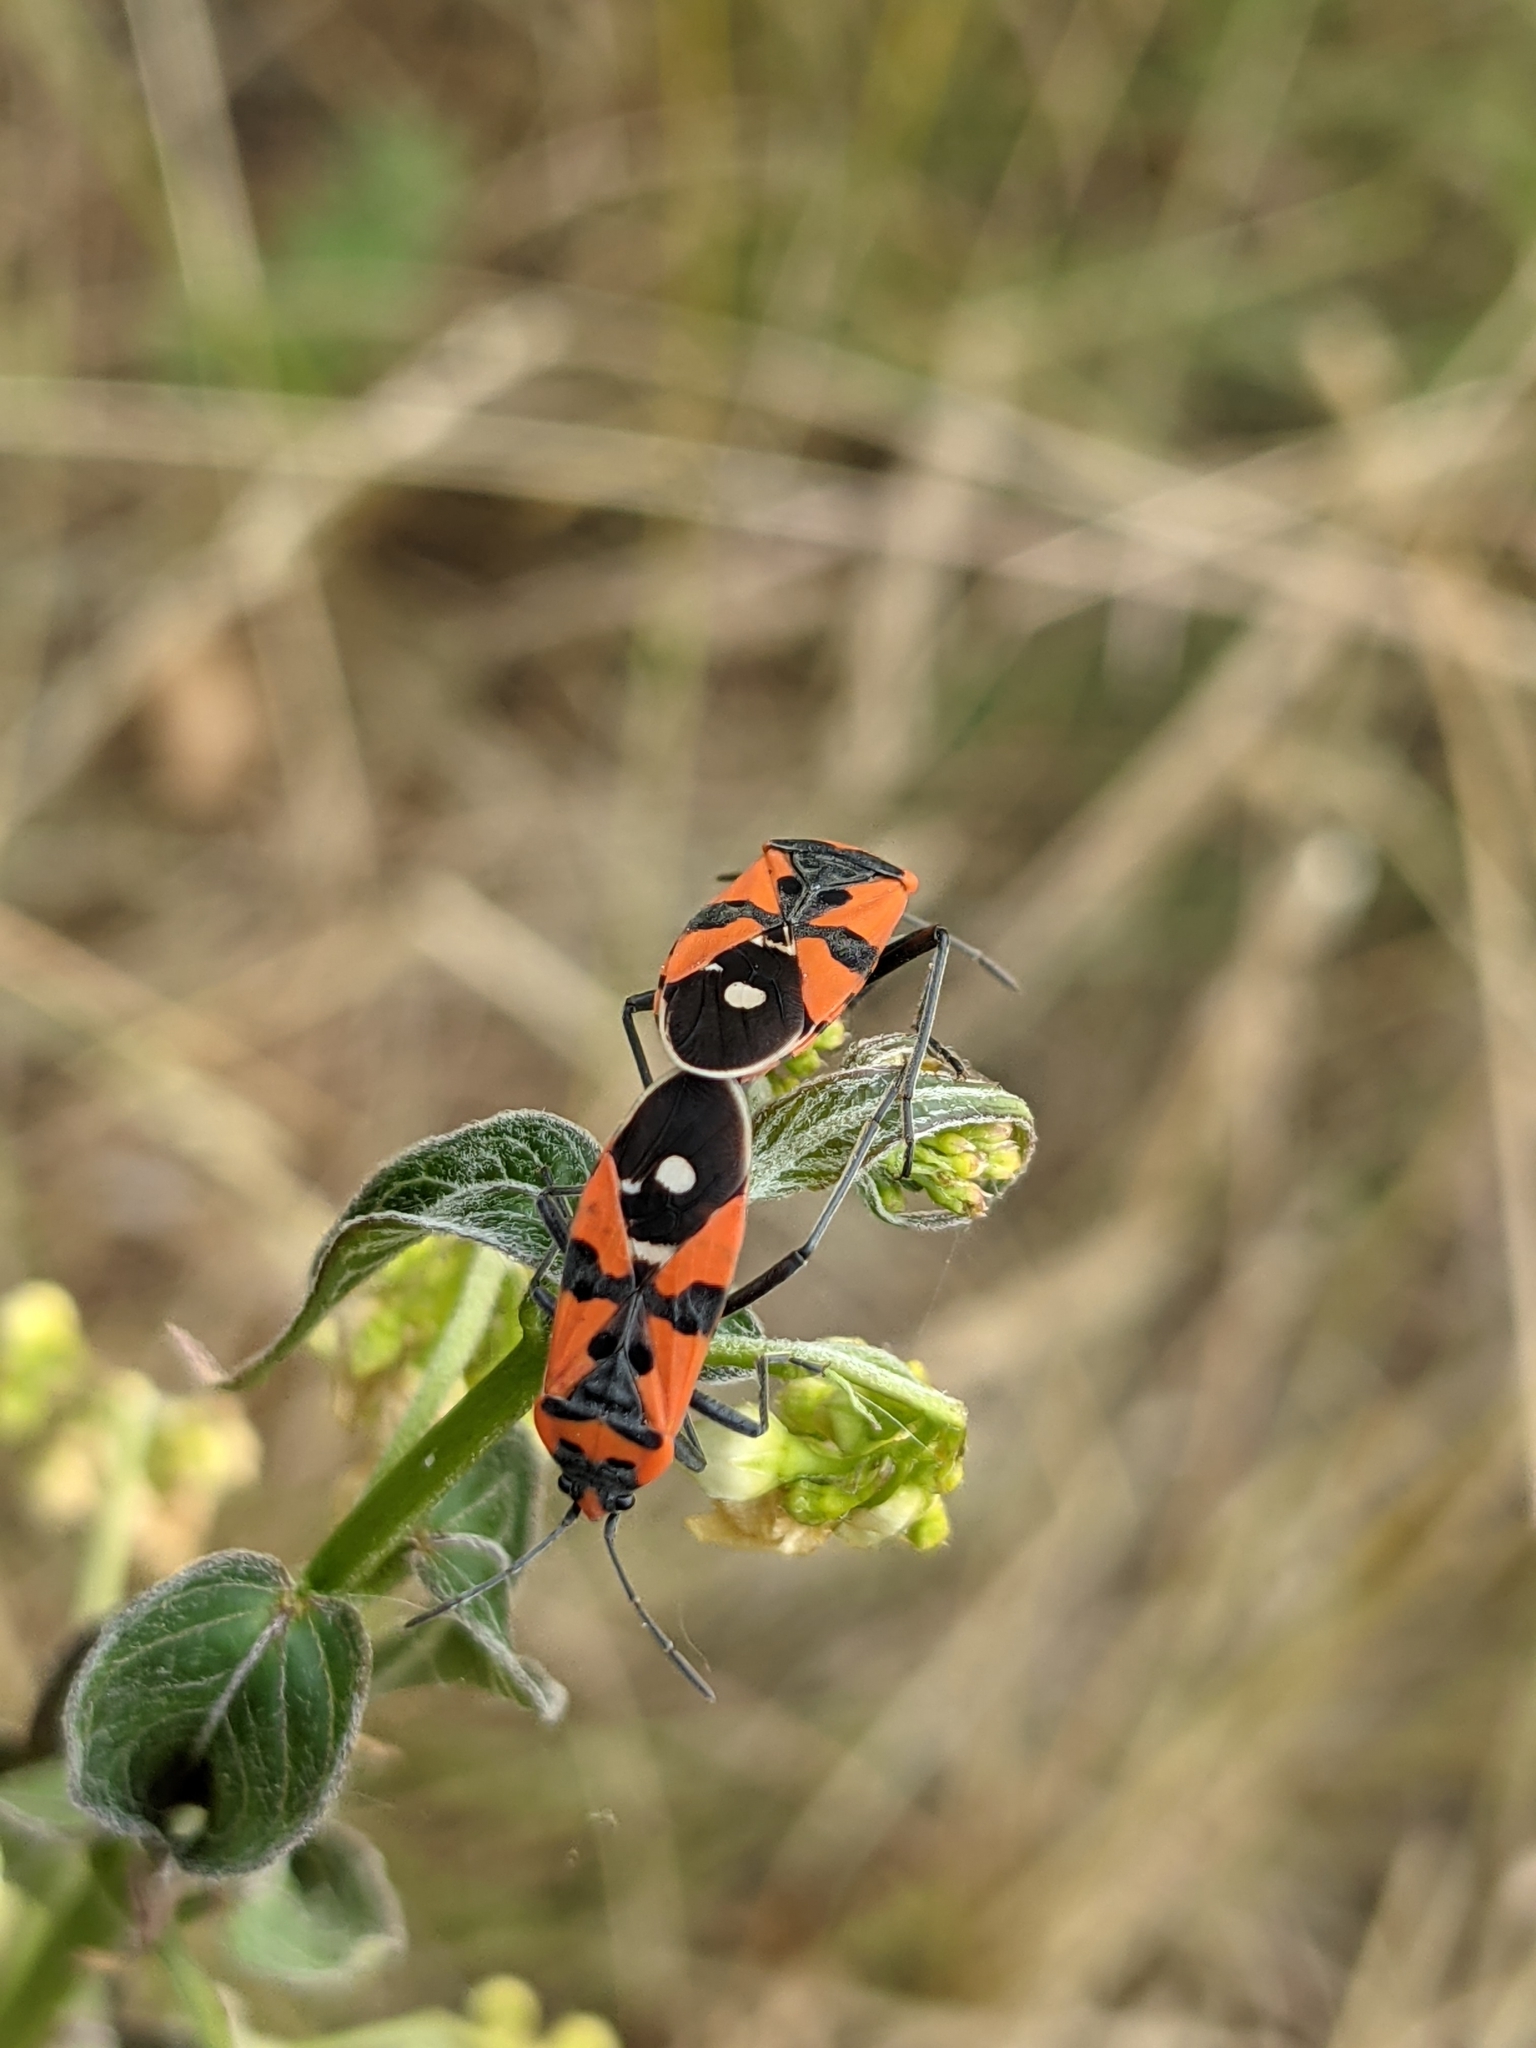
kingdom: Animalia
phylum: Arthropoda
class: Insecta
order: Hemiptera
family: Lygaeidae
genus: Lygaeus
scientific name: Lygaeus equestris
